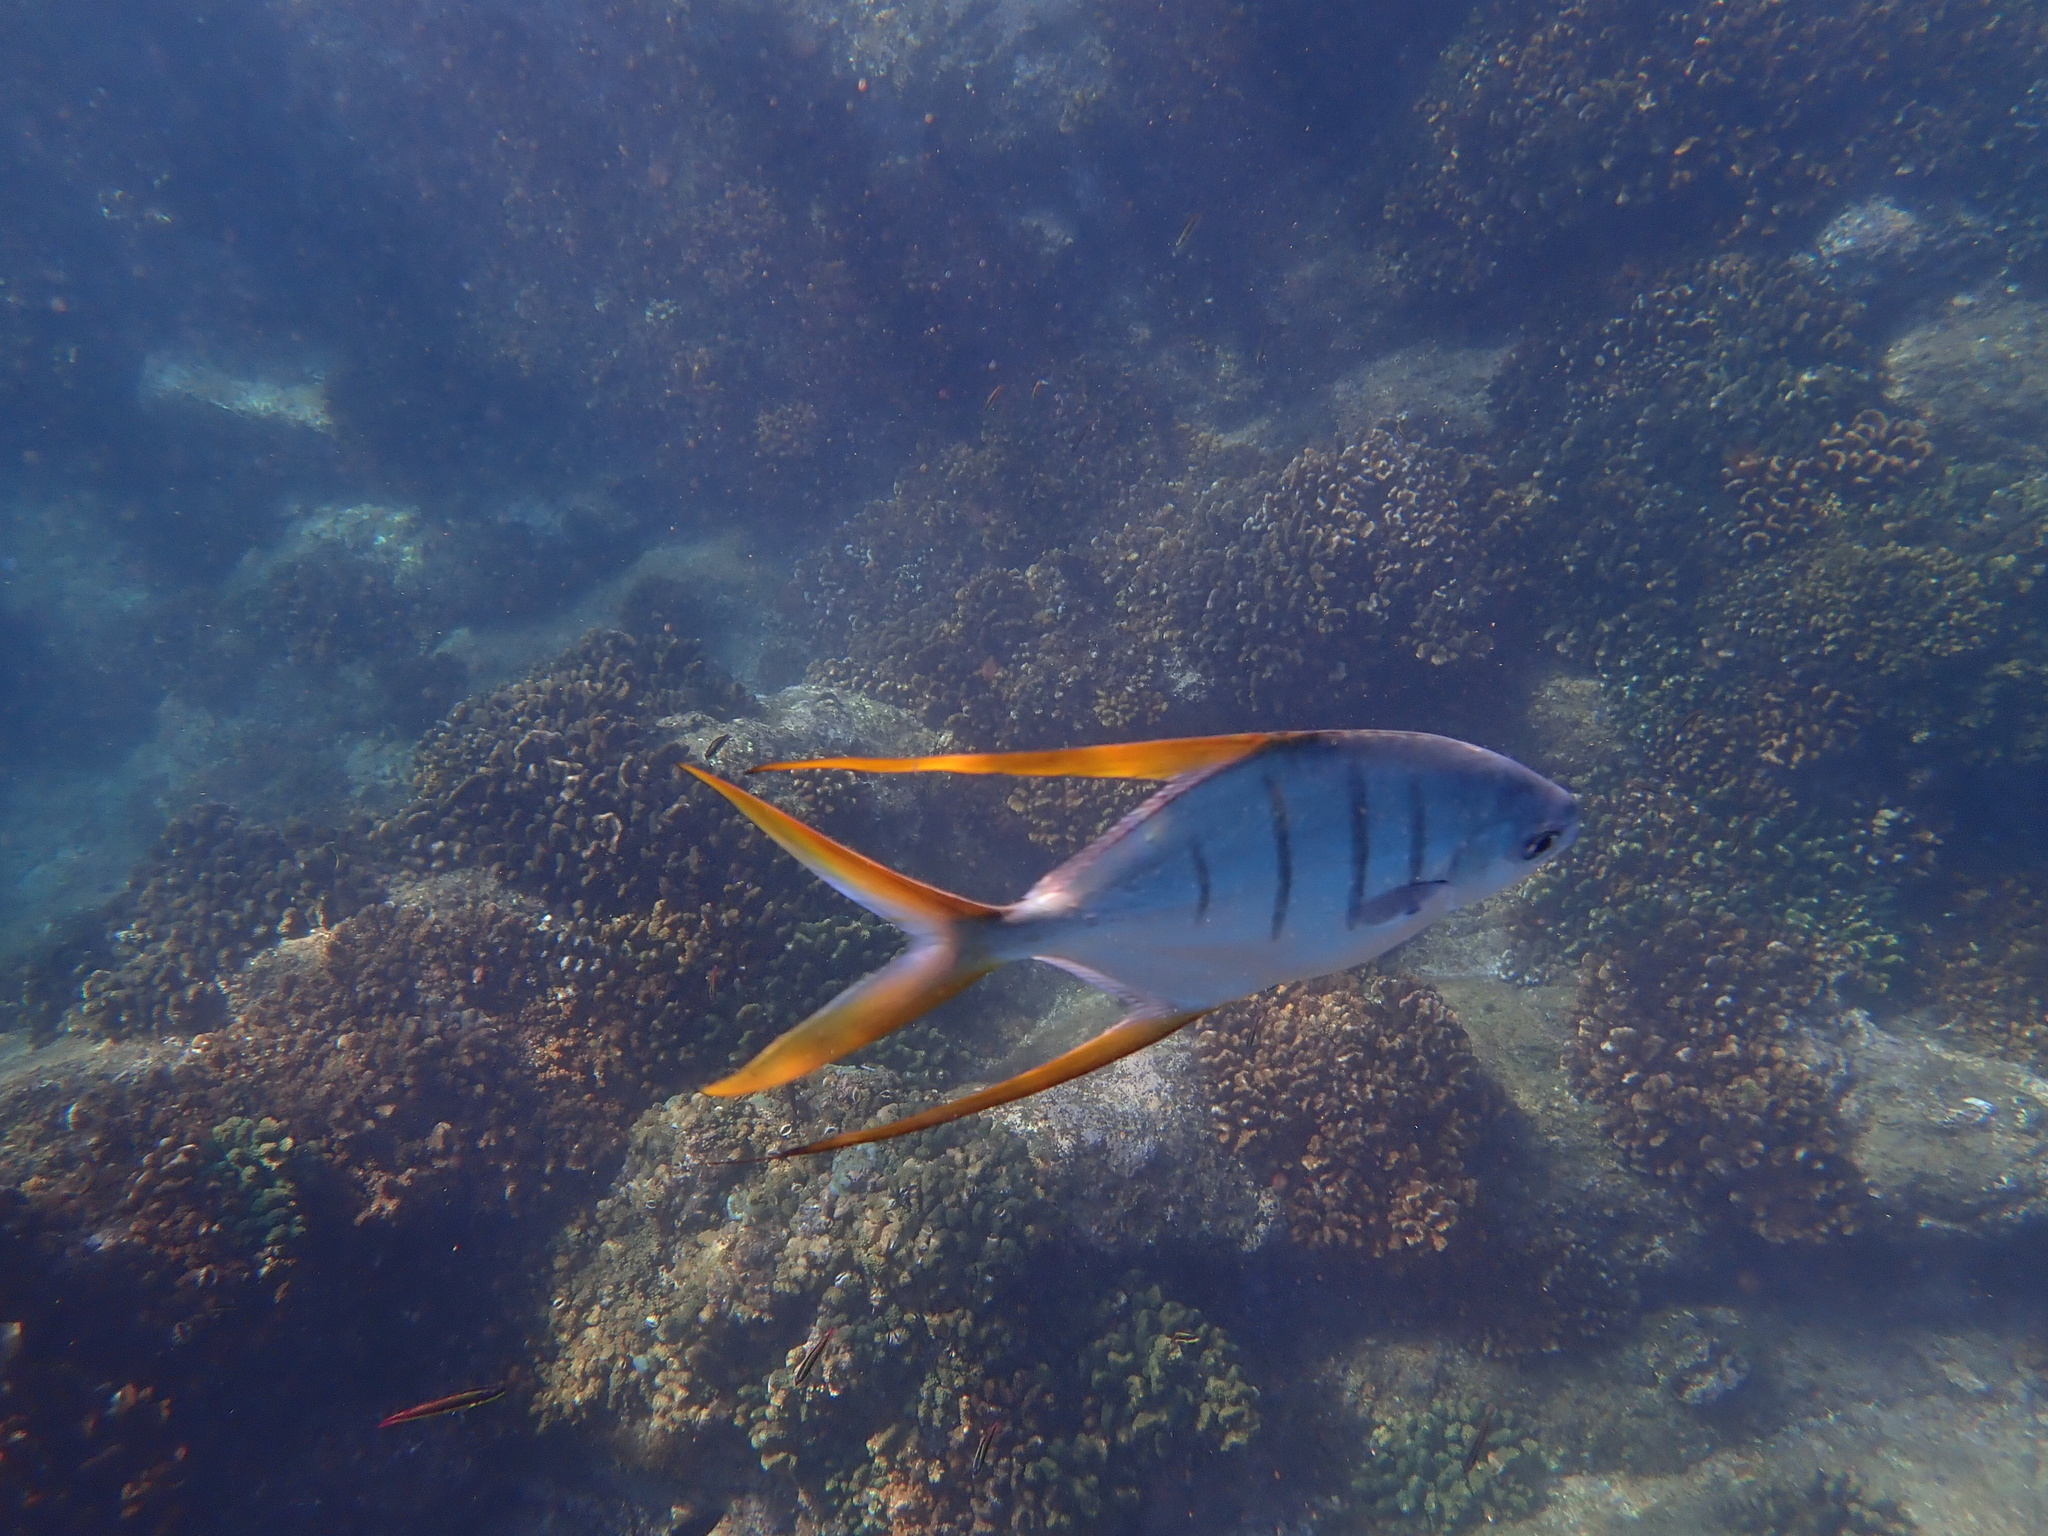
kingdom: Animalia
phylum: Chordata
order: Perciformes
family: Carangidae
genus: Trachinotus
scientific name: Trachinotus rhodopus
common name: Gafftopsail pompano
